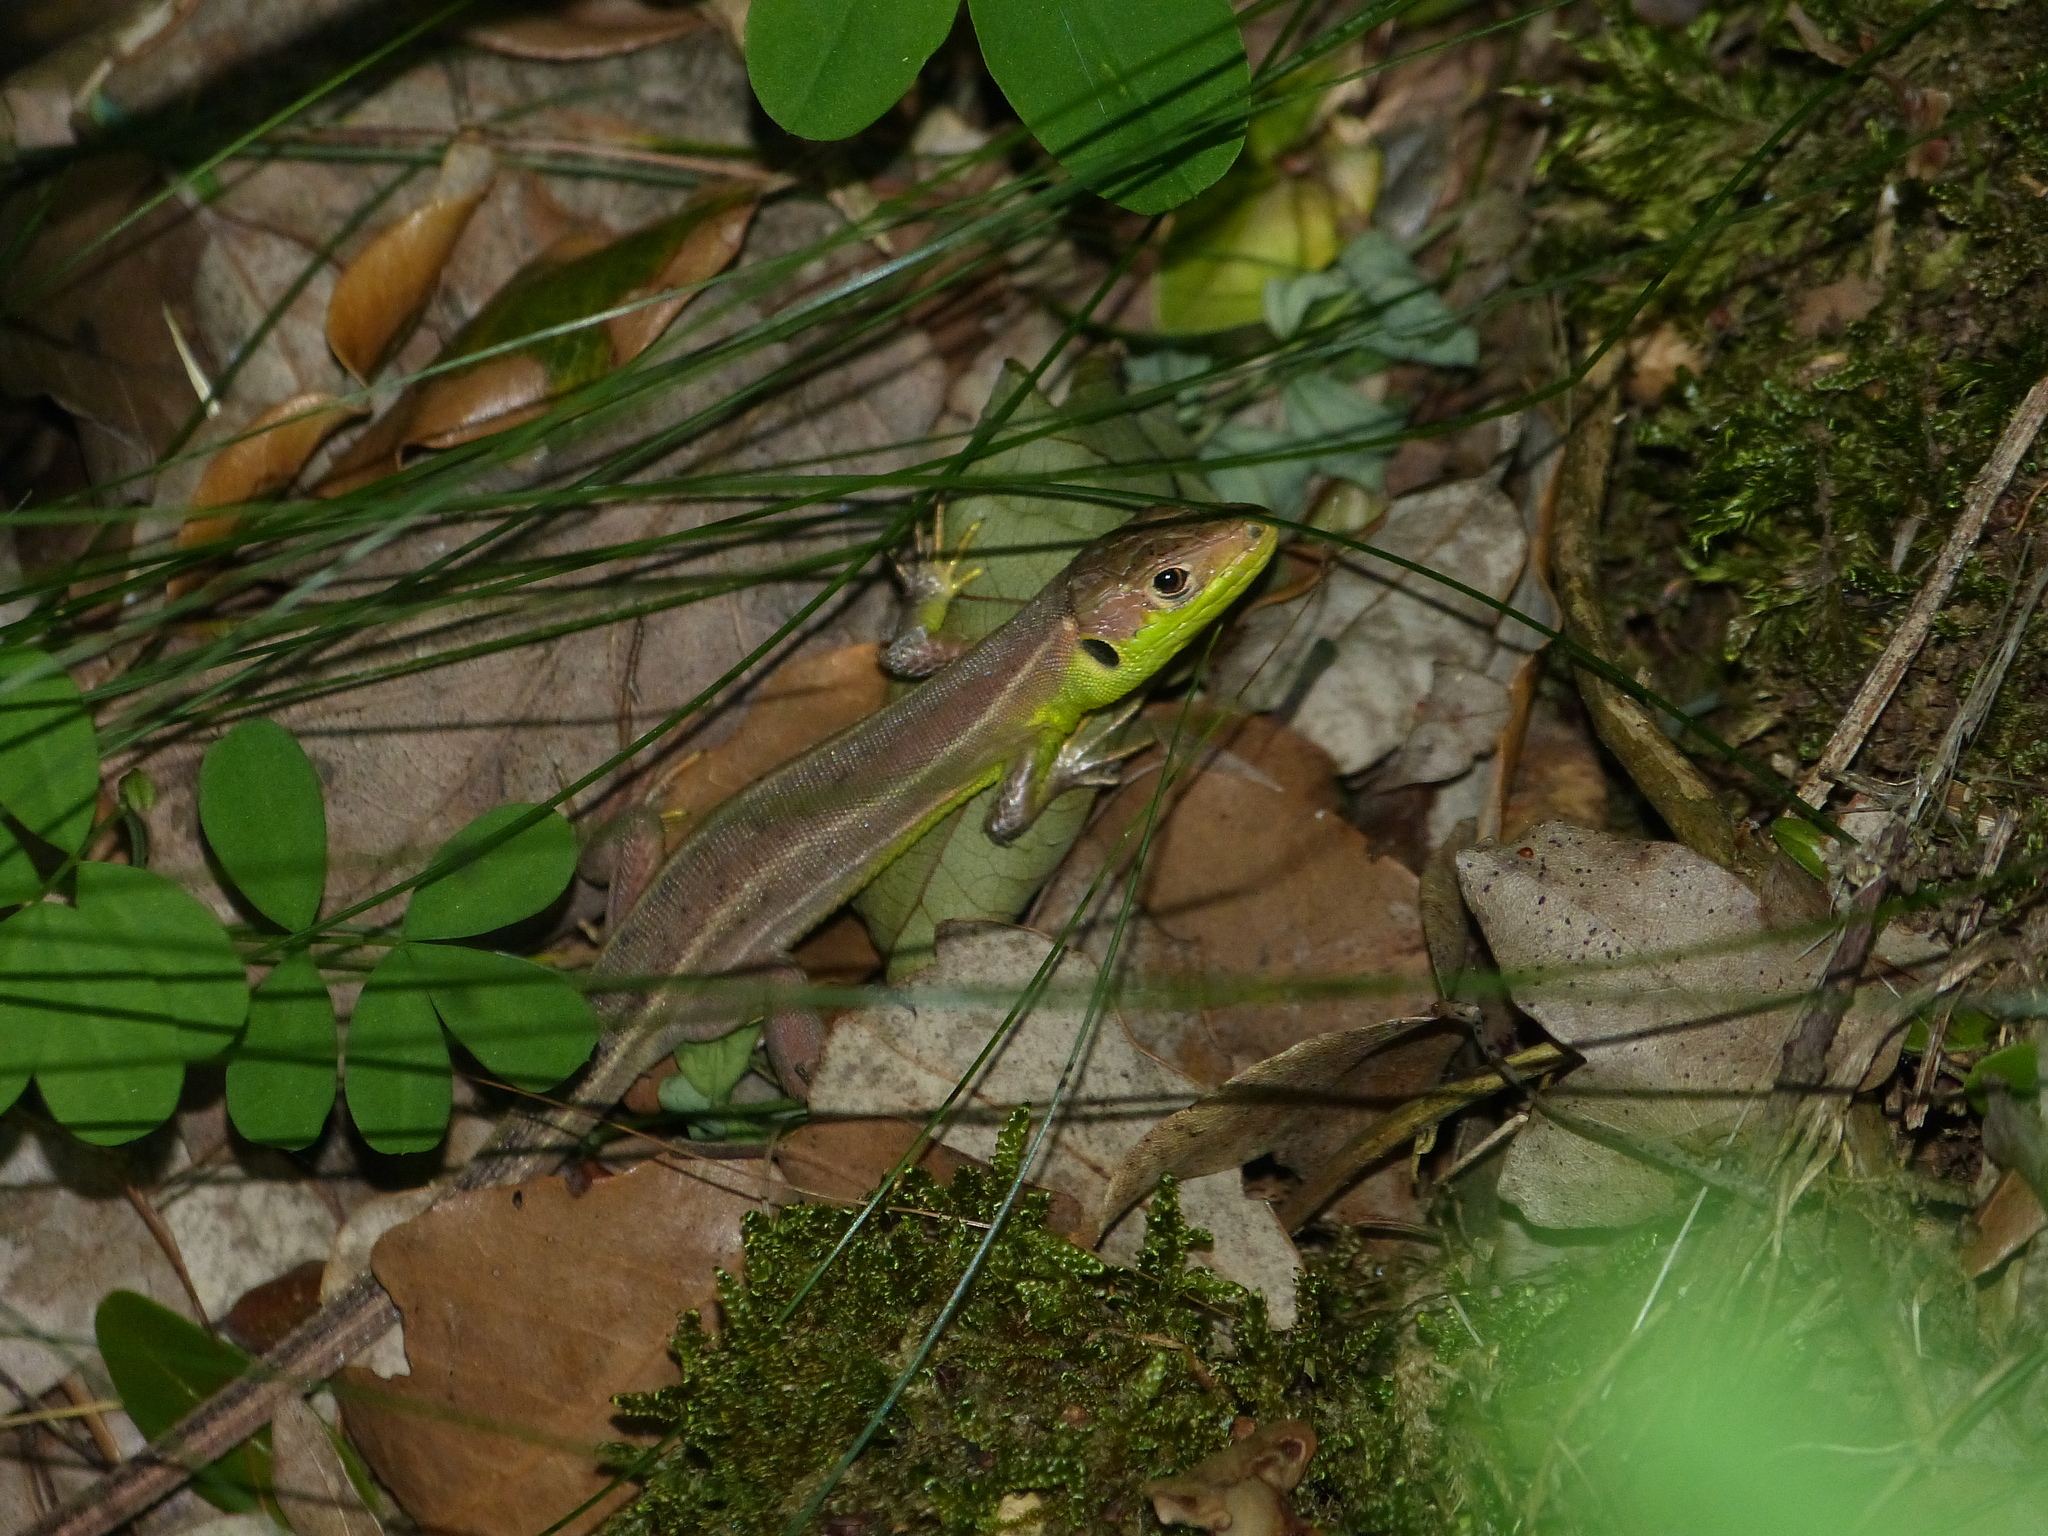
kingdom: Animalia
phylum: Chordata
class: Squamata
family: Lacertidae
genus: Lacerta
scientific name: Lacerta bilineata
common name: Western green lizard
